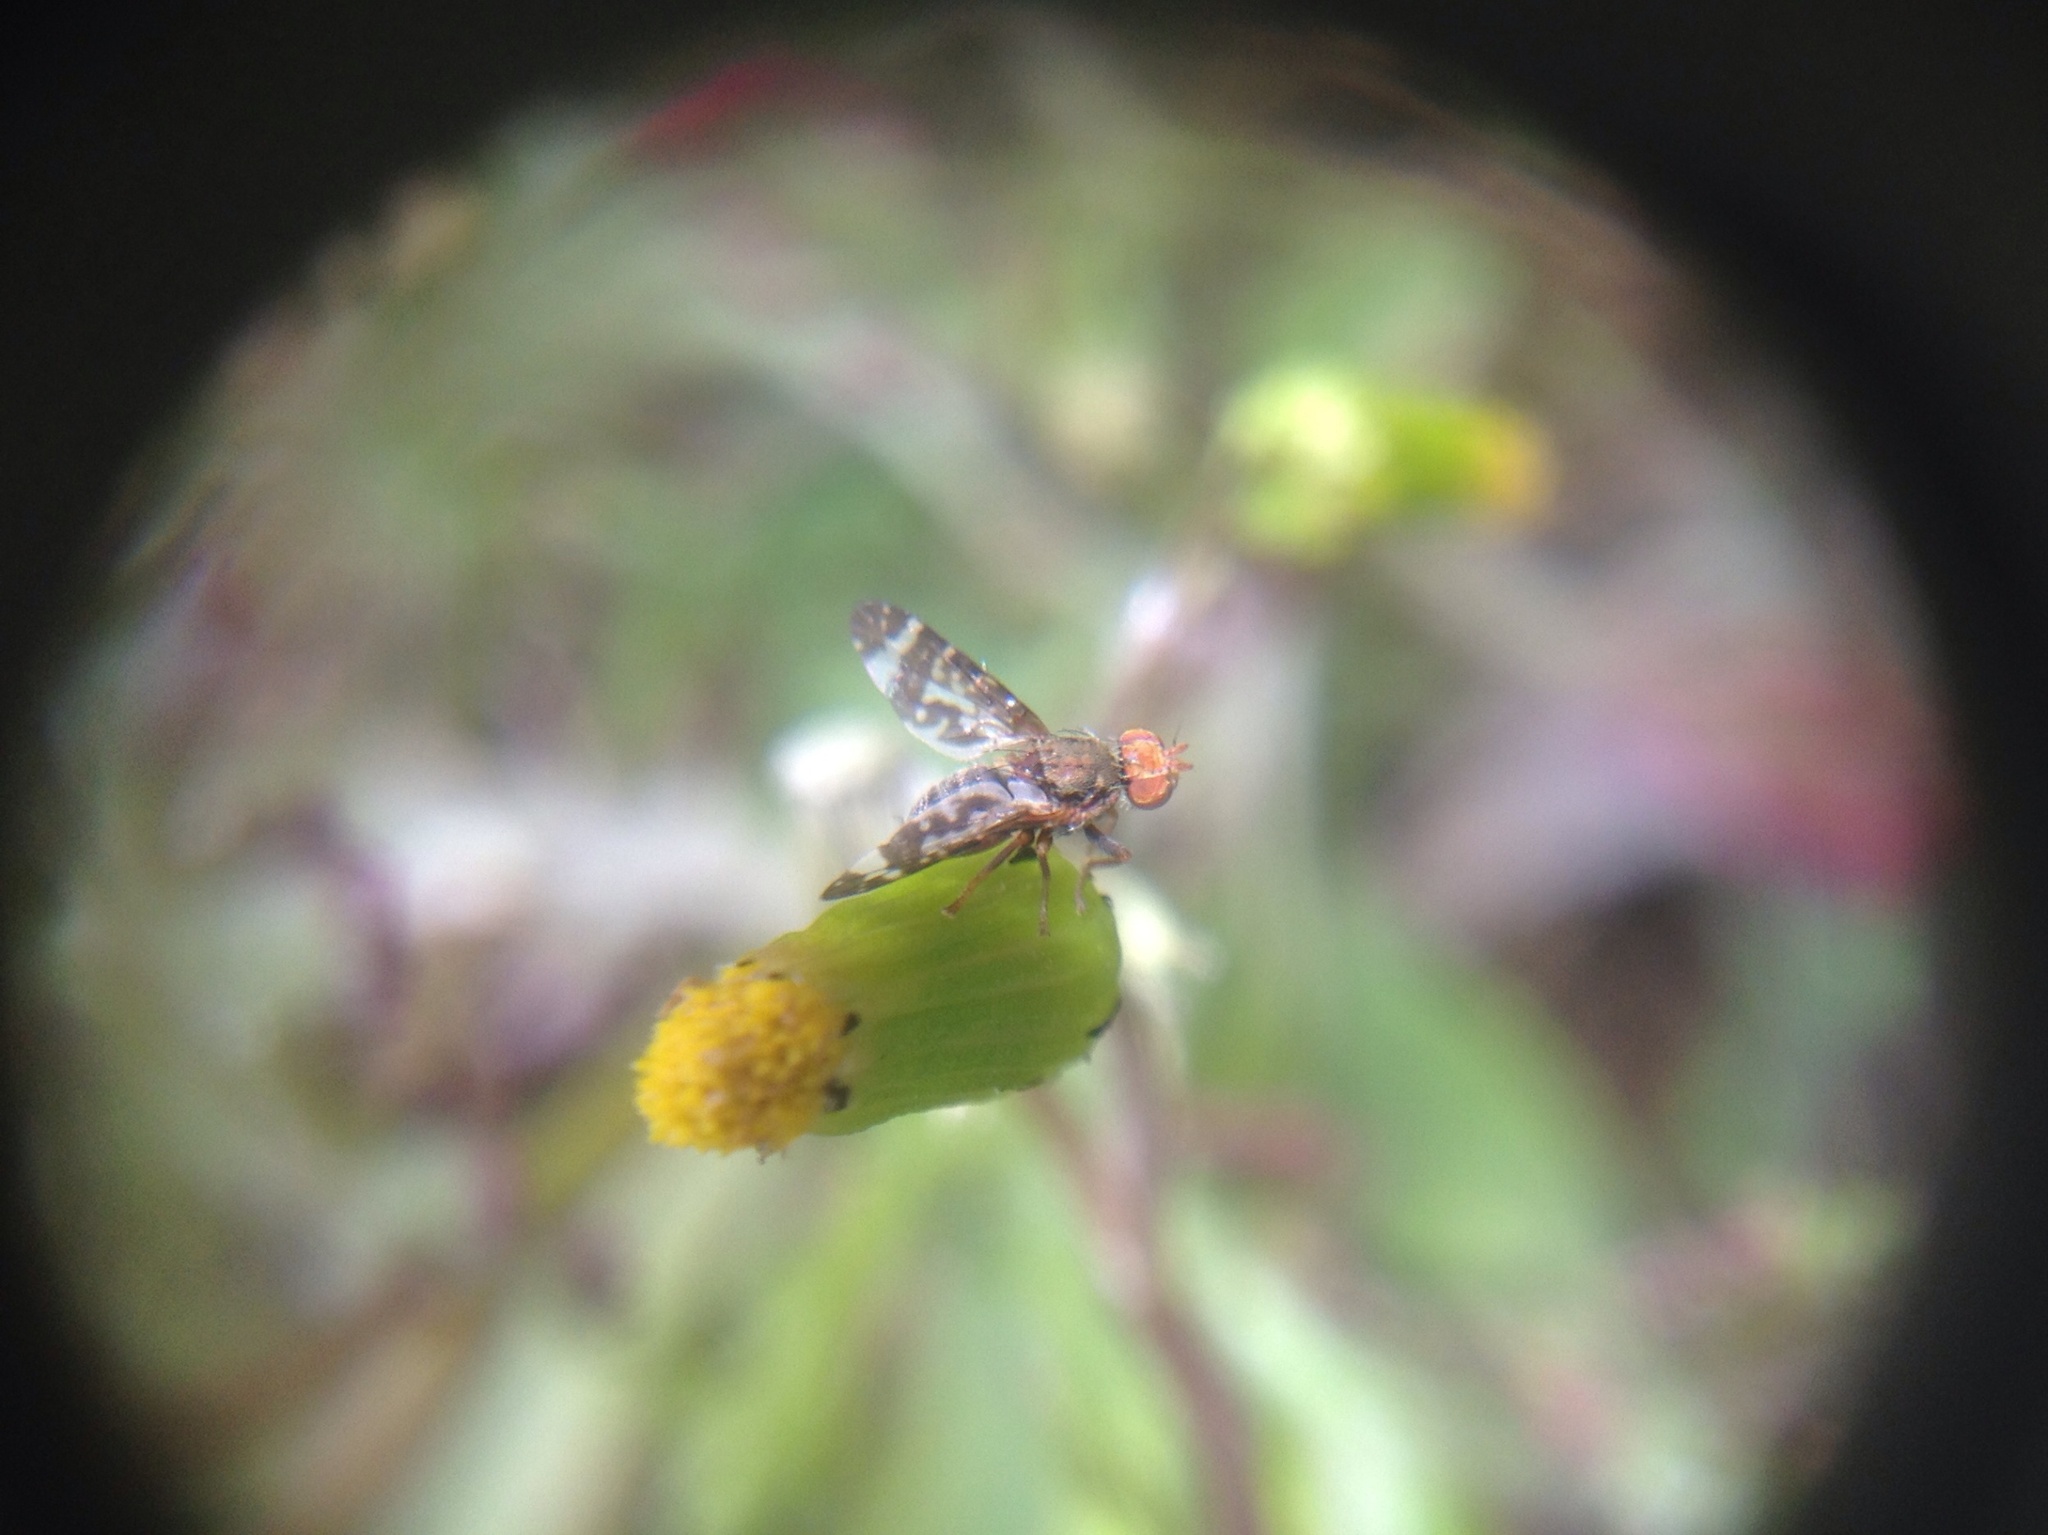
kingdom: Animalia
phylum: Arthropoda
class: Insecta
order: Diptera
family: Tephritidae
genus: Sphenella
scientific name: Sphenella
